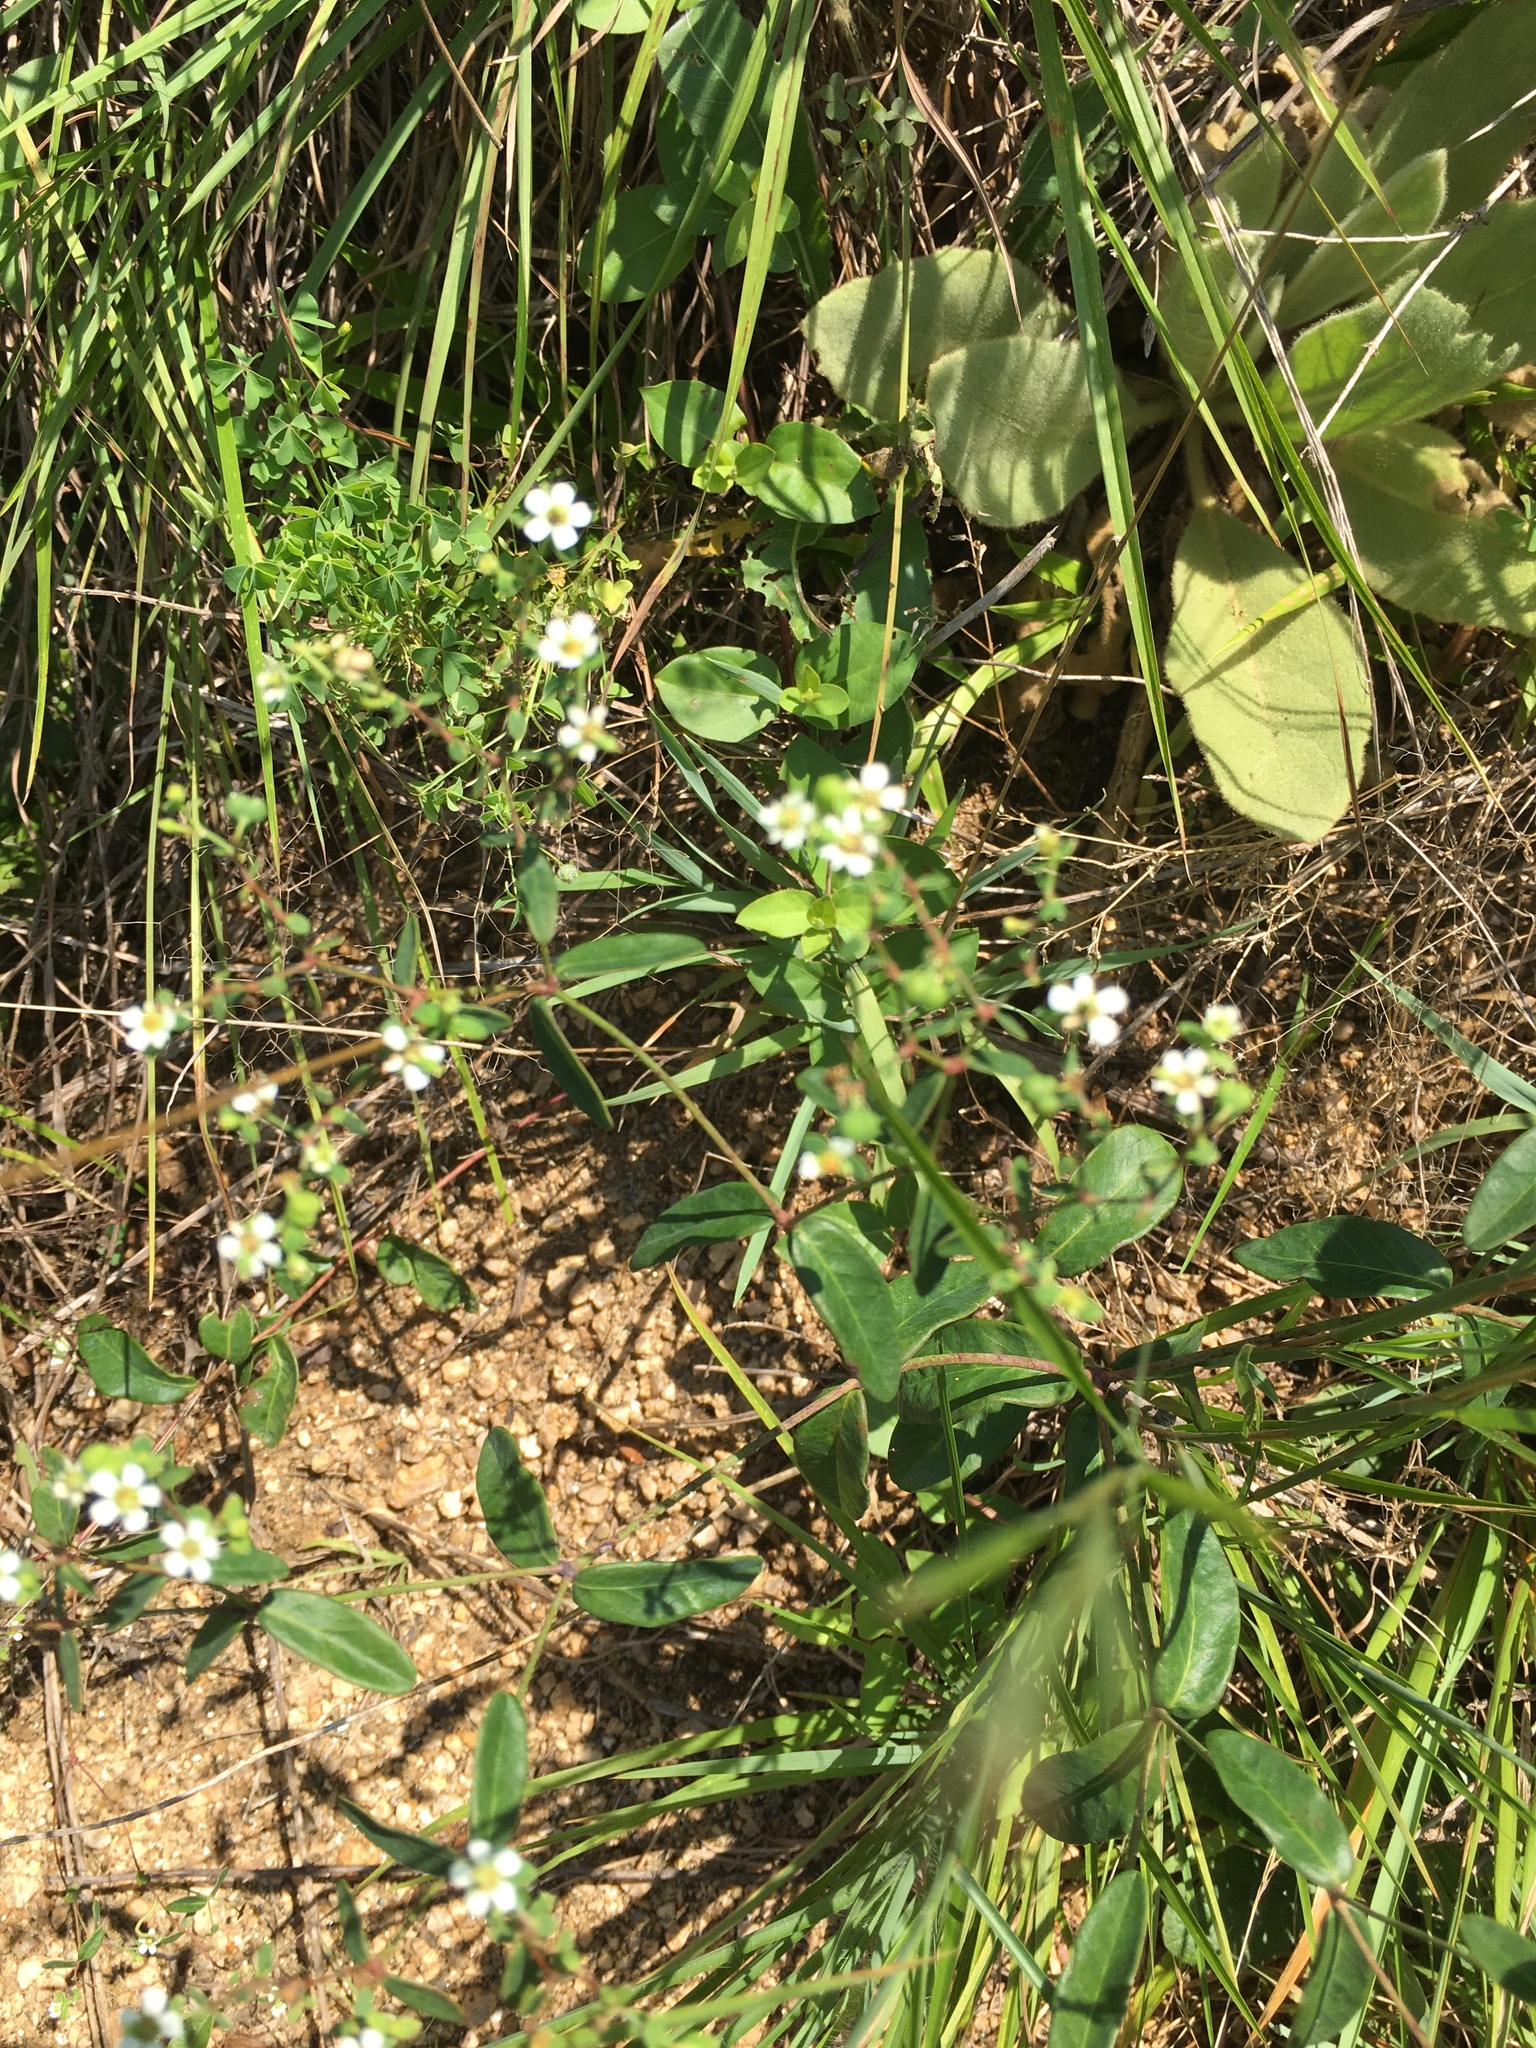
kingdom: Plantae
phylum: Tracheophyta
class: Magnoliopsida
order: Malpighiales
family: Euphorbiaceae
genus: Euphorbia
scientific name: Euphorbia corollata
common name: Flowering spurge
